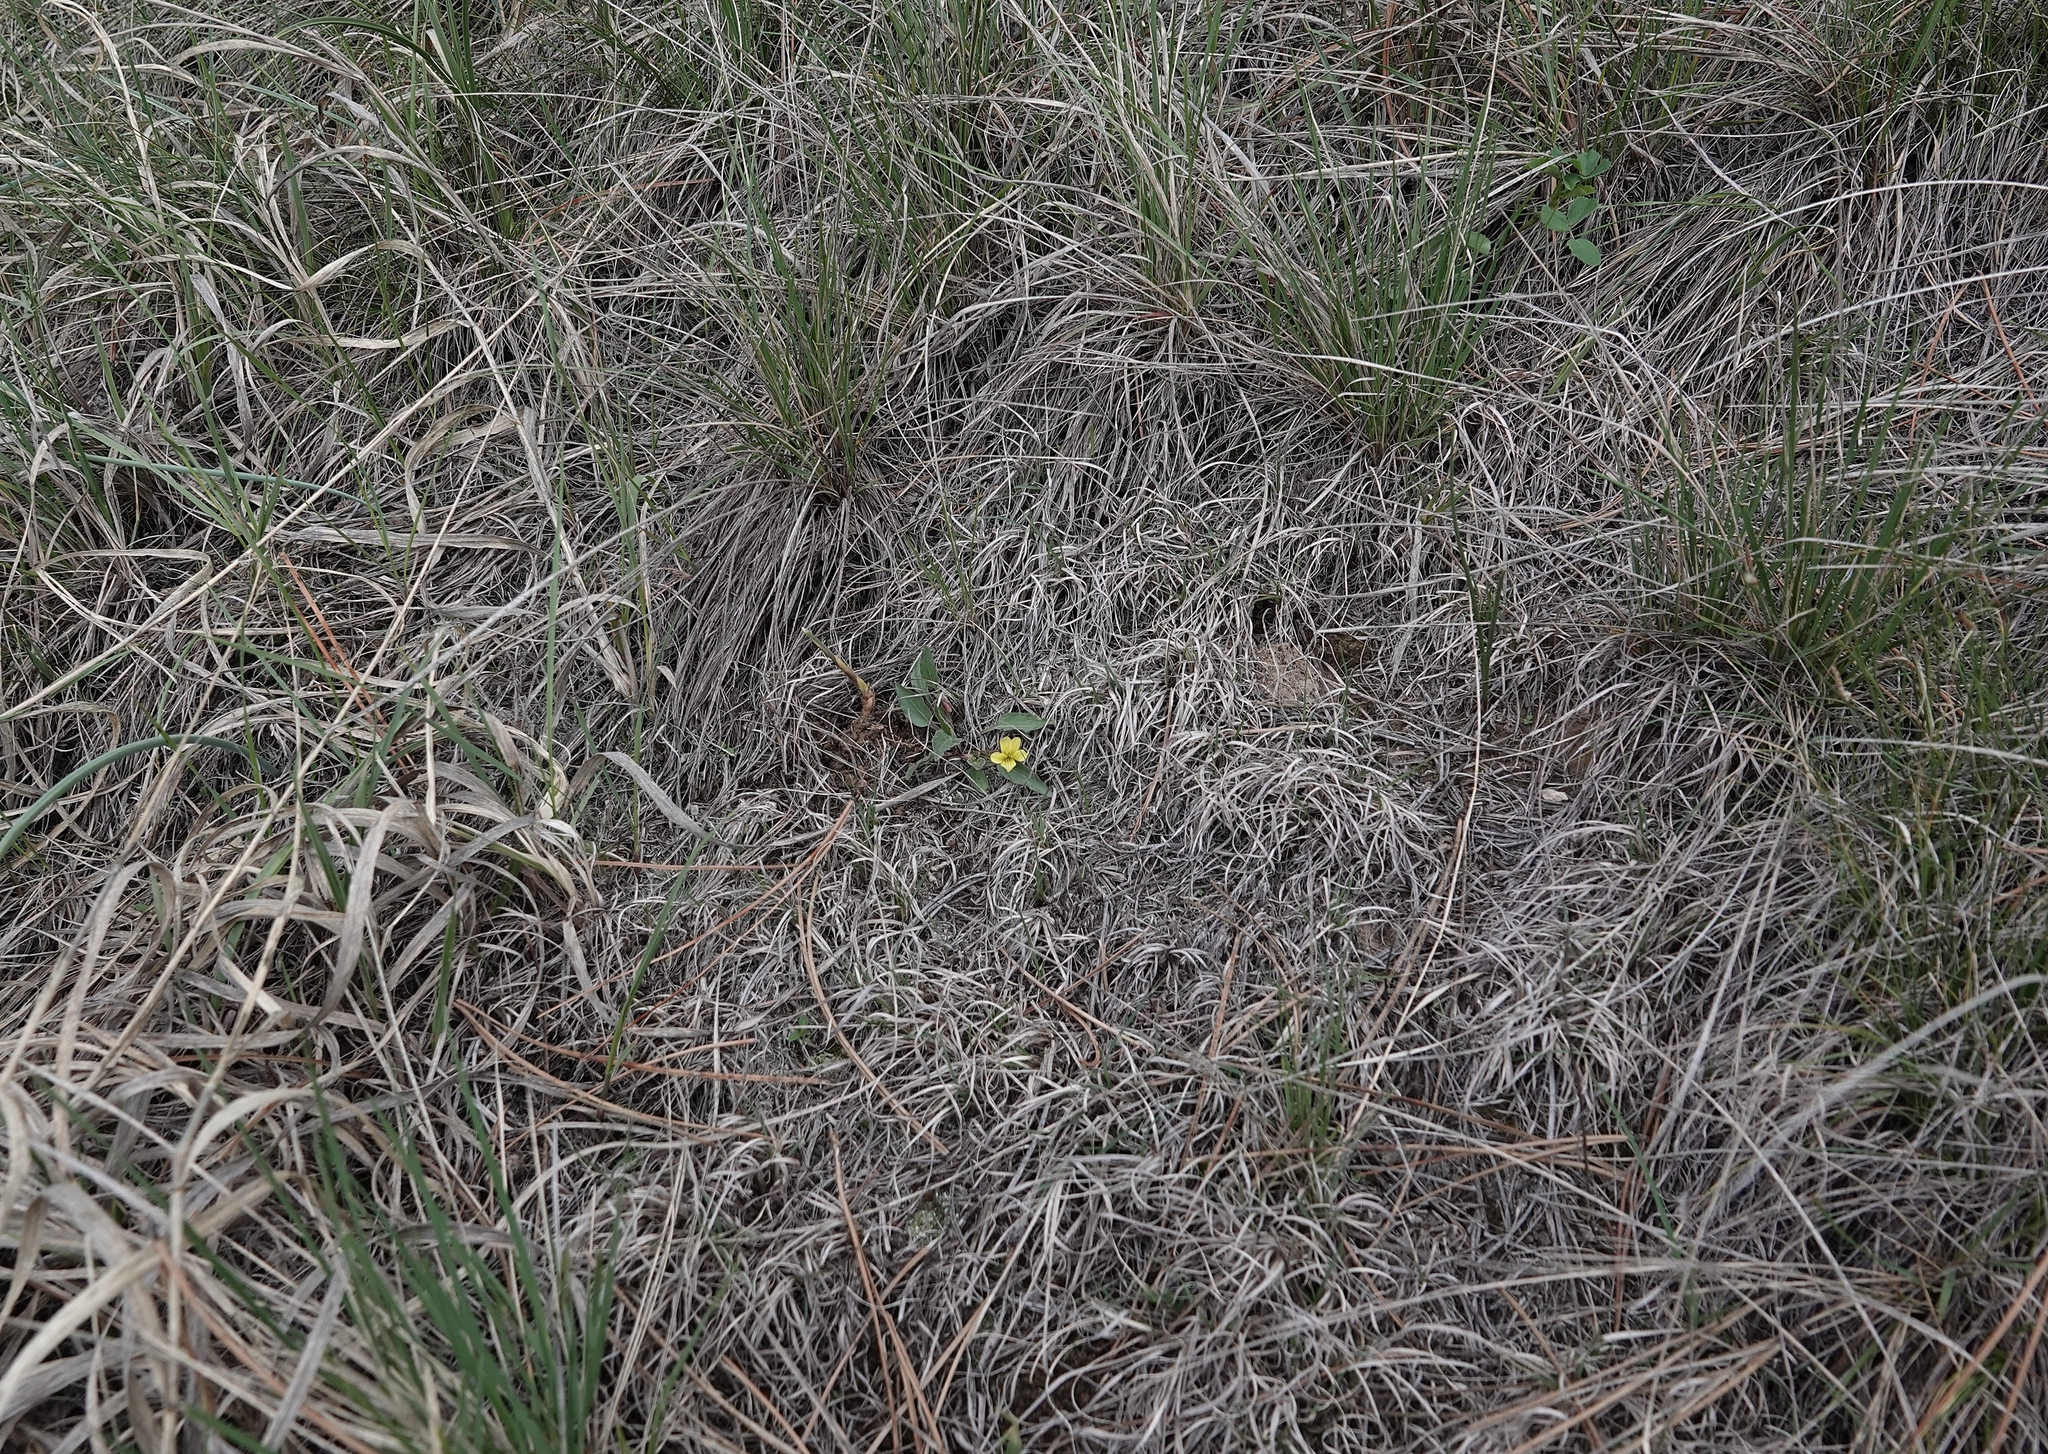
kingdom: Plantae
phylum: Tracheophyta
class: Magnoliopsida
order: Malpighiales
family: Violaceae
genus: Viola
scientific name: Viola nuttallii
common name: Yellow prairie violet
